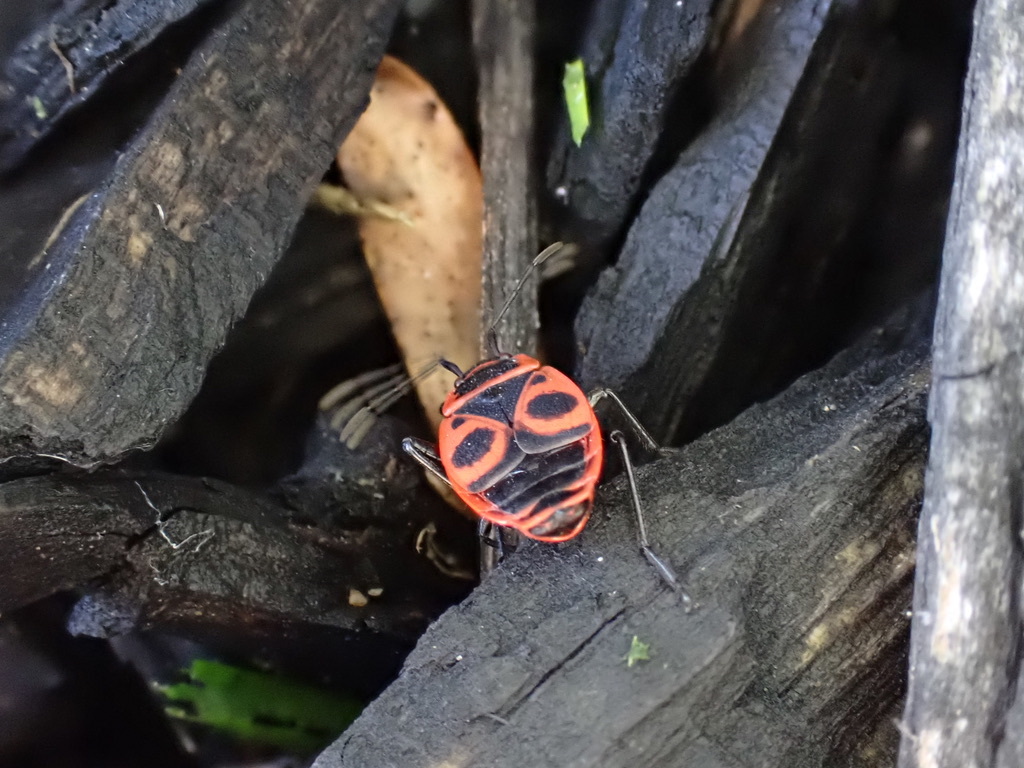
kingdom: Animalia
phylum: Arthropoda
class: Insecta
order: Hemiptera
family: Pyrrhocoridae
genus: Pyrrhocoris
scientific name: Pyrrhocoris apterus
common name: Firebug
